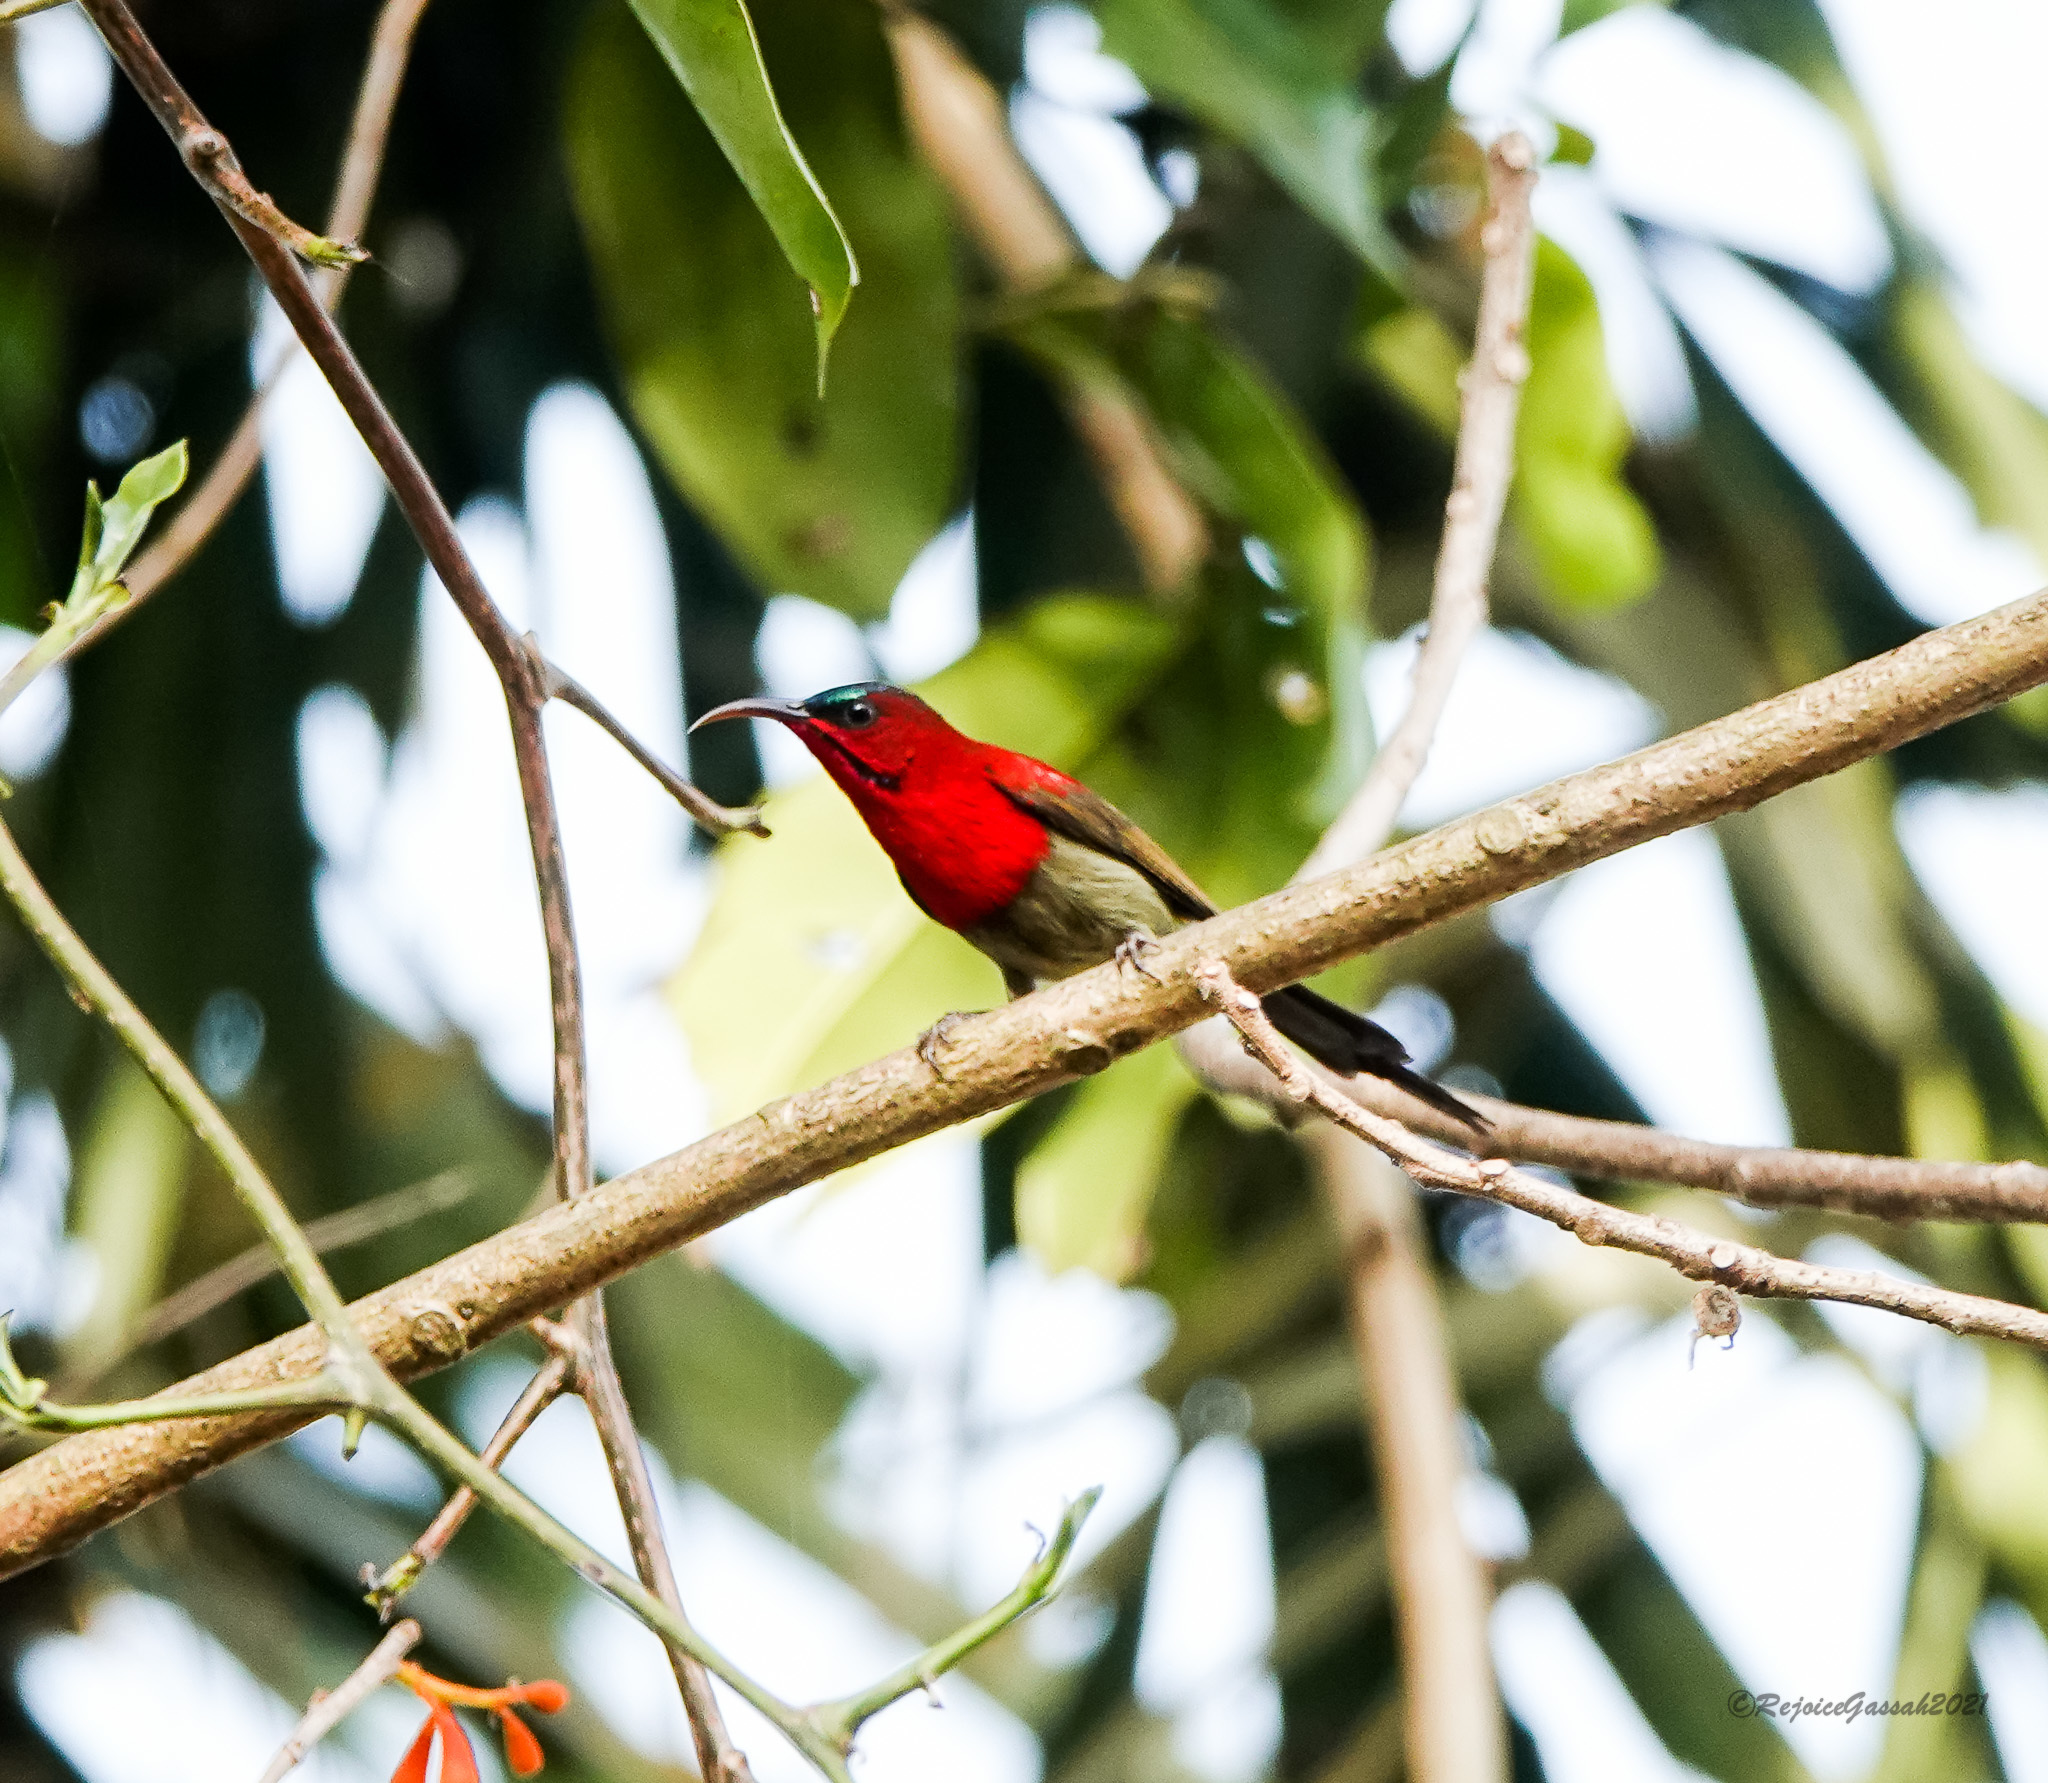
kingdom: Animalia
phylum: Chordata
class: Aves
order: Passeriformes
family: Nectariniidae
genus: Aethopyga
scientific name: Aethopyga siparaja
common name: Crimson sunbird
